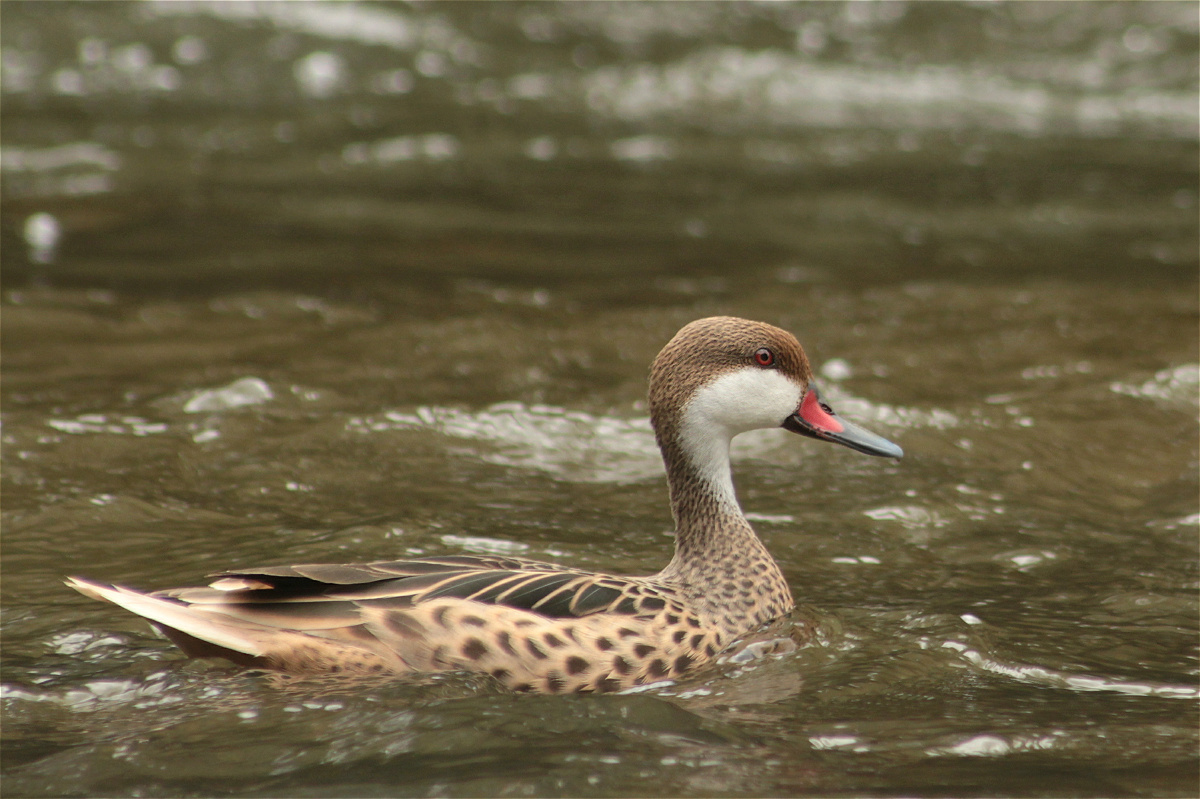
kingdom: Animalia
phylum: Chordata
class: Aves
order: Anseriformes
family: Anatidae
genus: Anas
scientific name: Anas bahamensis
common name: White-cheeked pintail
